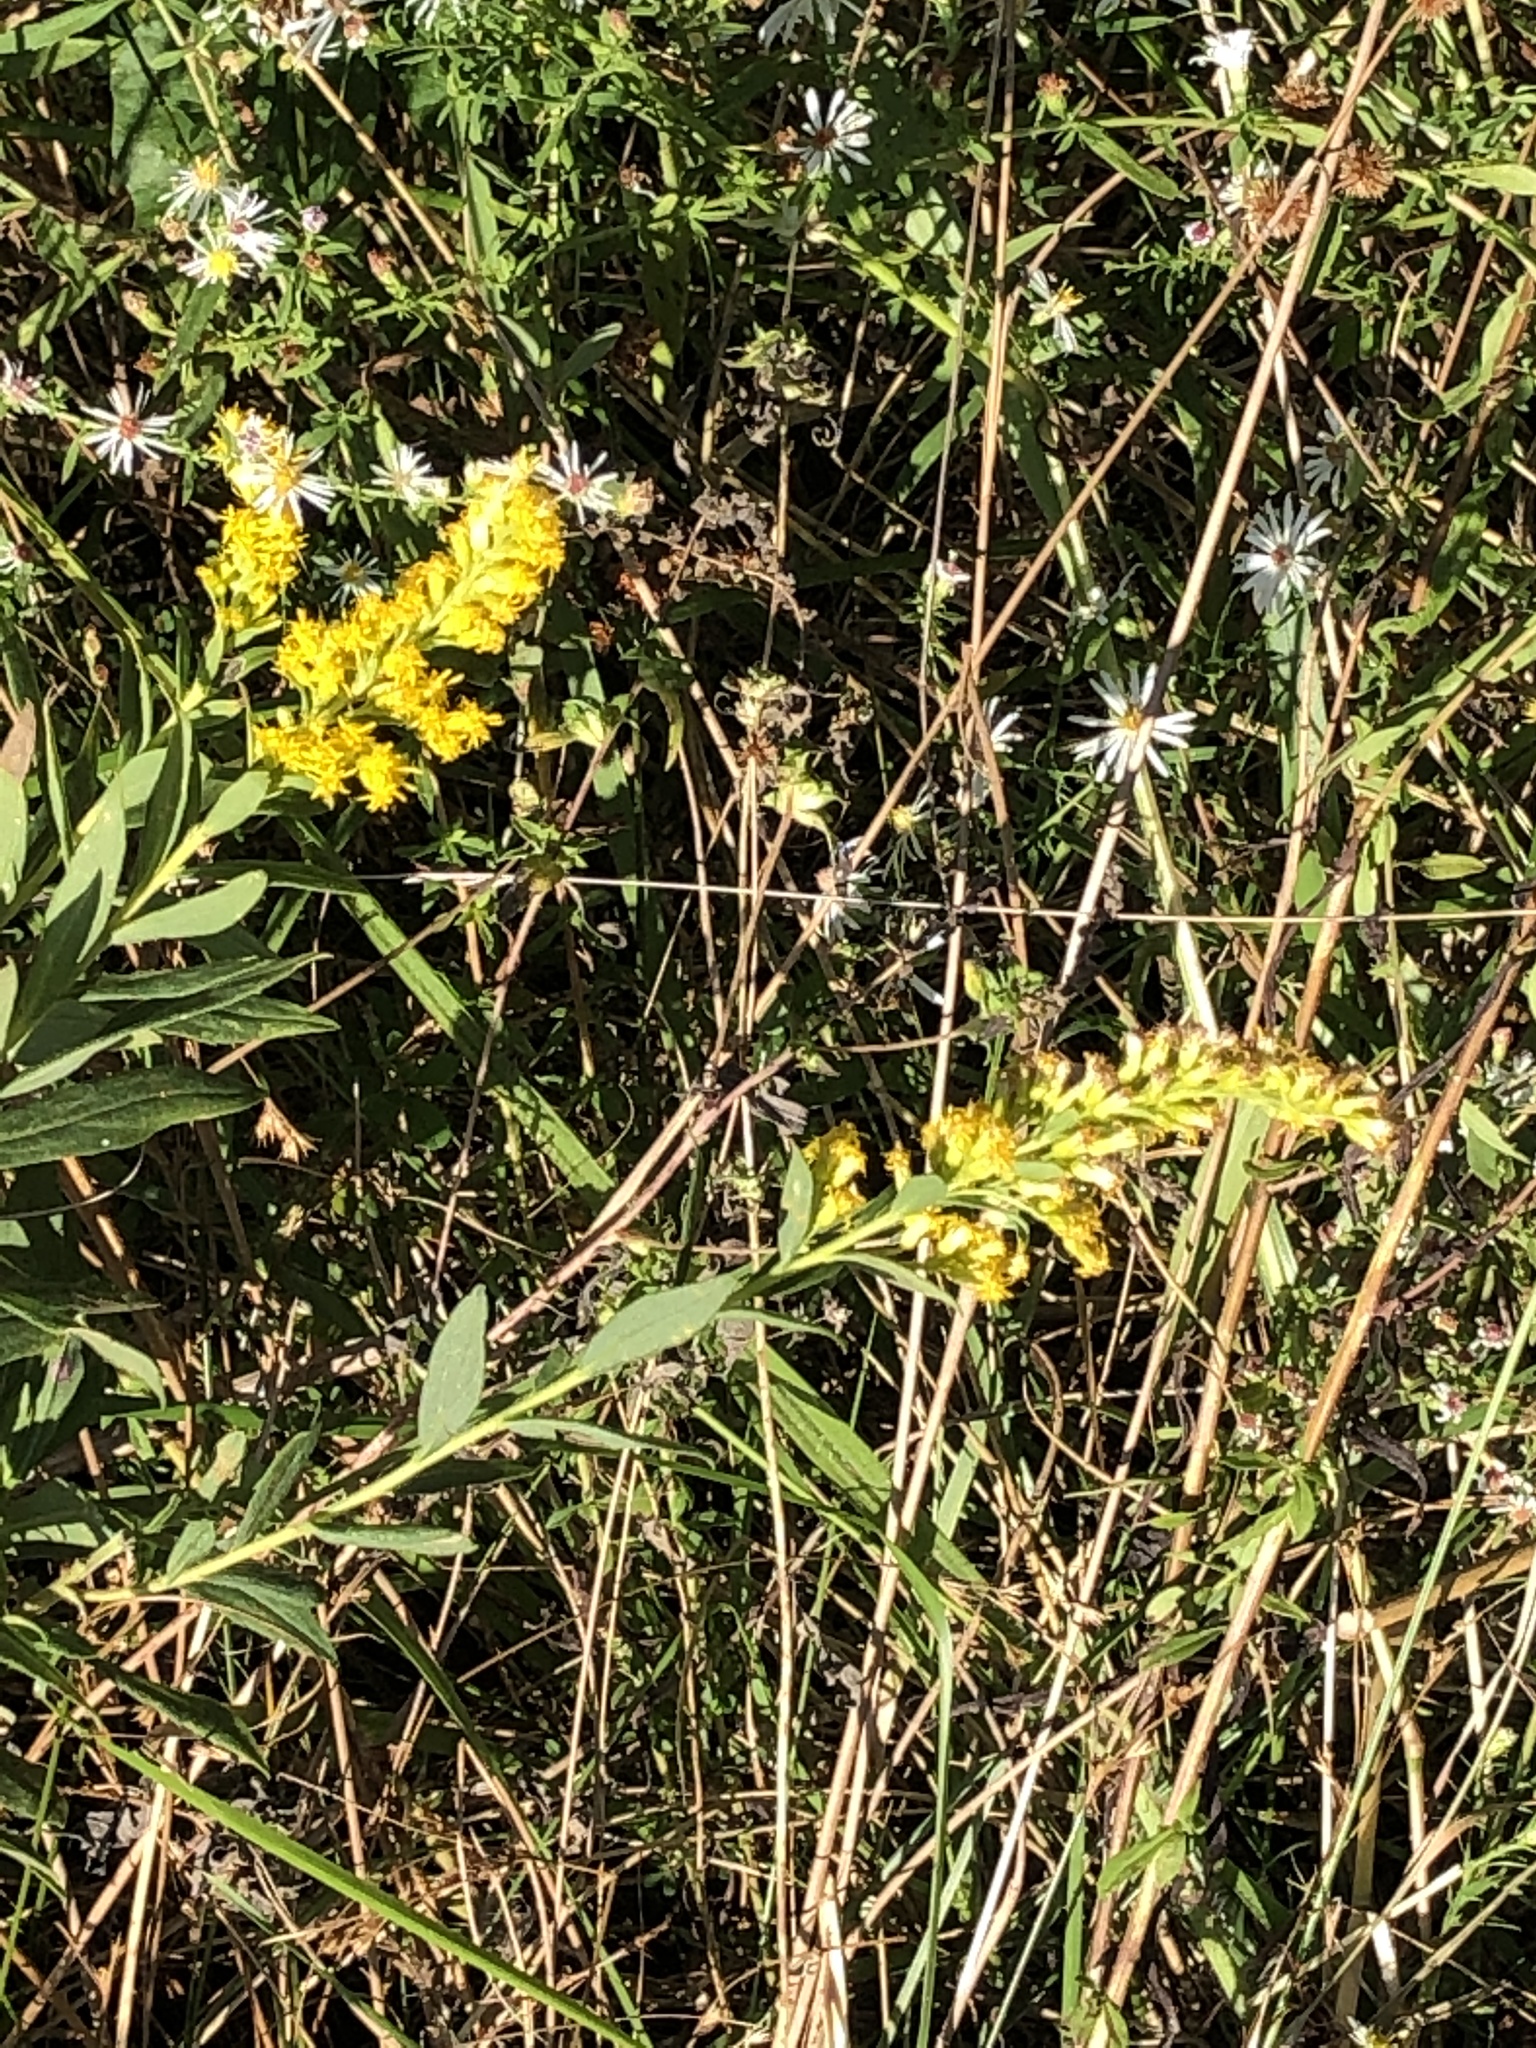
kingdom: Plantae
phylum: Tracheophyta
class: Magnoliopsida
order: Asterales
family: Asteraceae
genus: Solidago
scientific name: Solidago sempervirens
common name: Salt-marsh goldenrod
